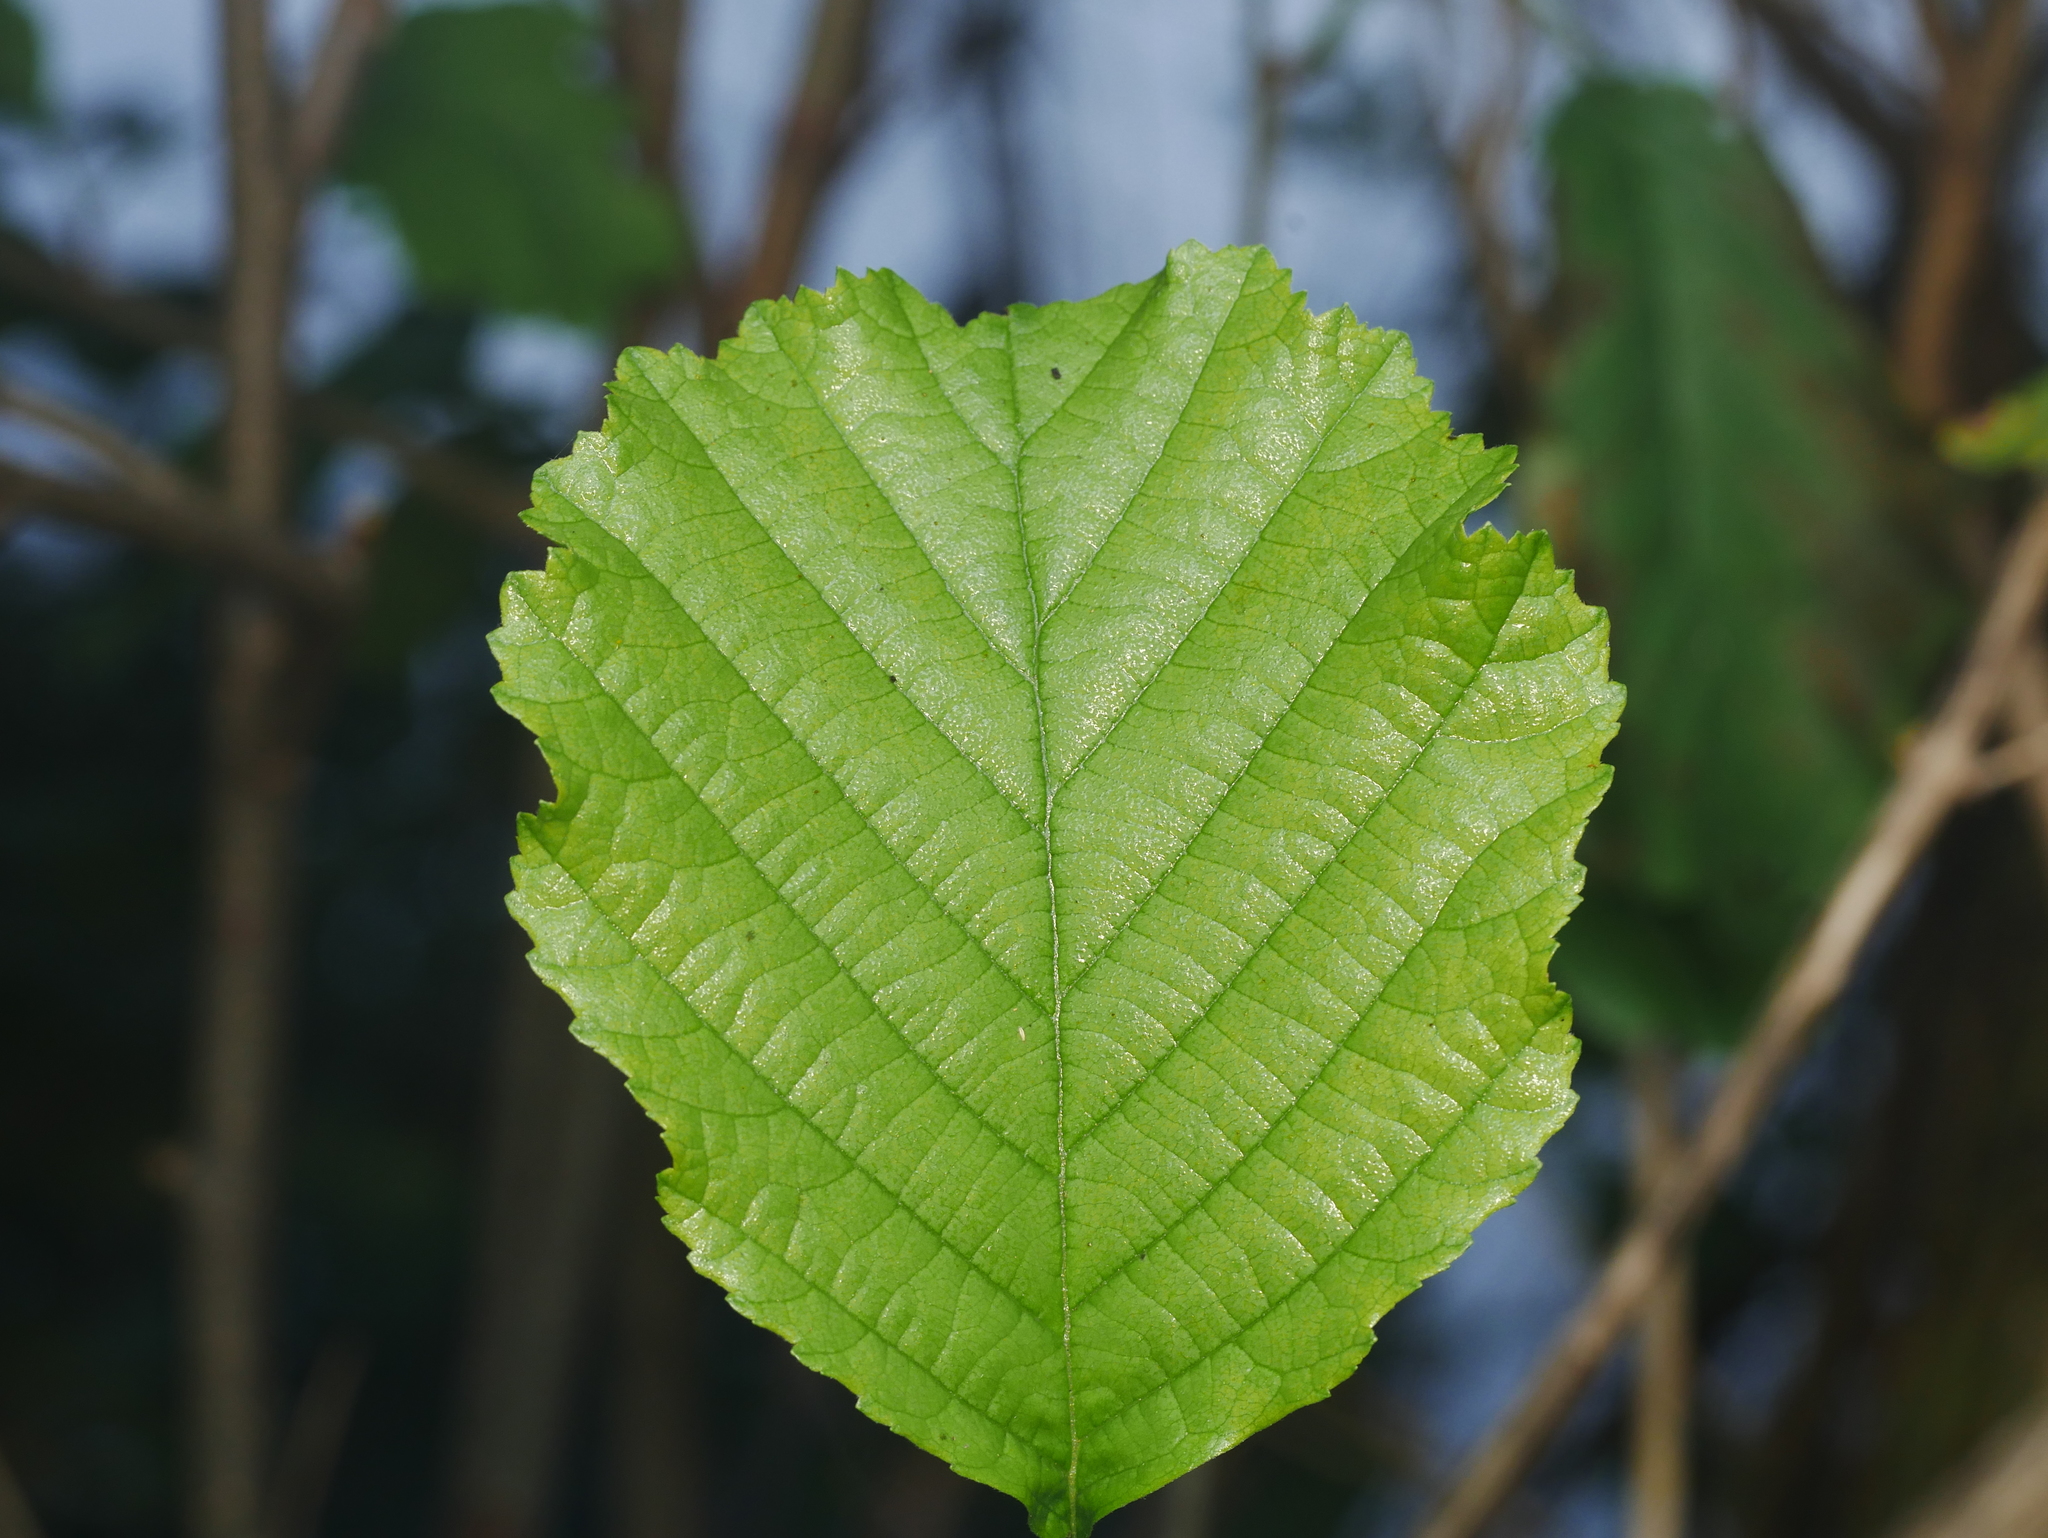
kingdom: Plantae
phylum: Tracheophyta
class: Magnoliopsida
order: Fagales
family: Betulaceae
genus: Alnus
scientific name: Alnus glutinosa
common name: Black alder
